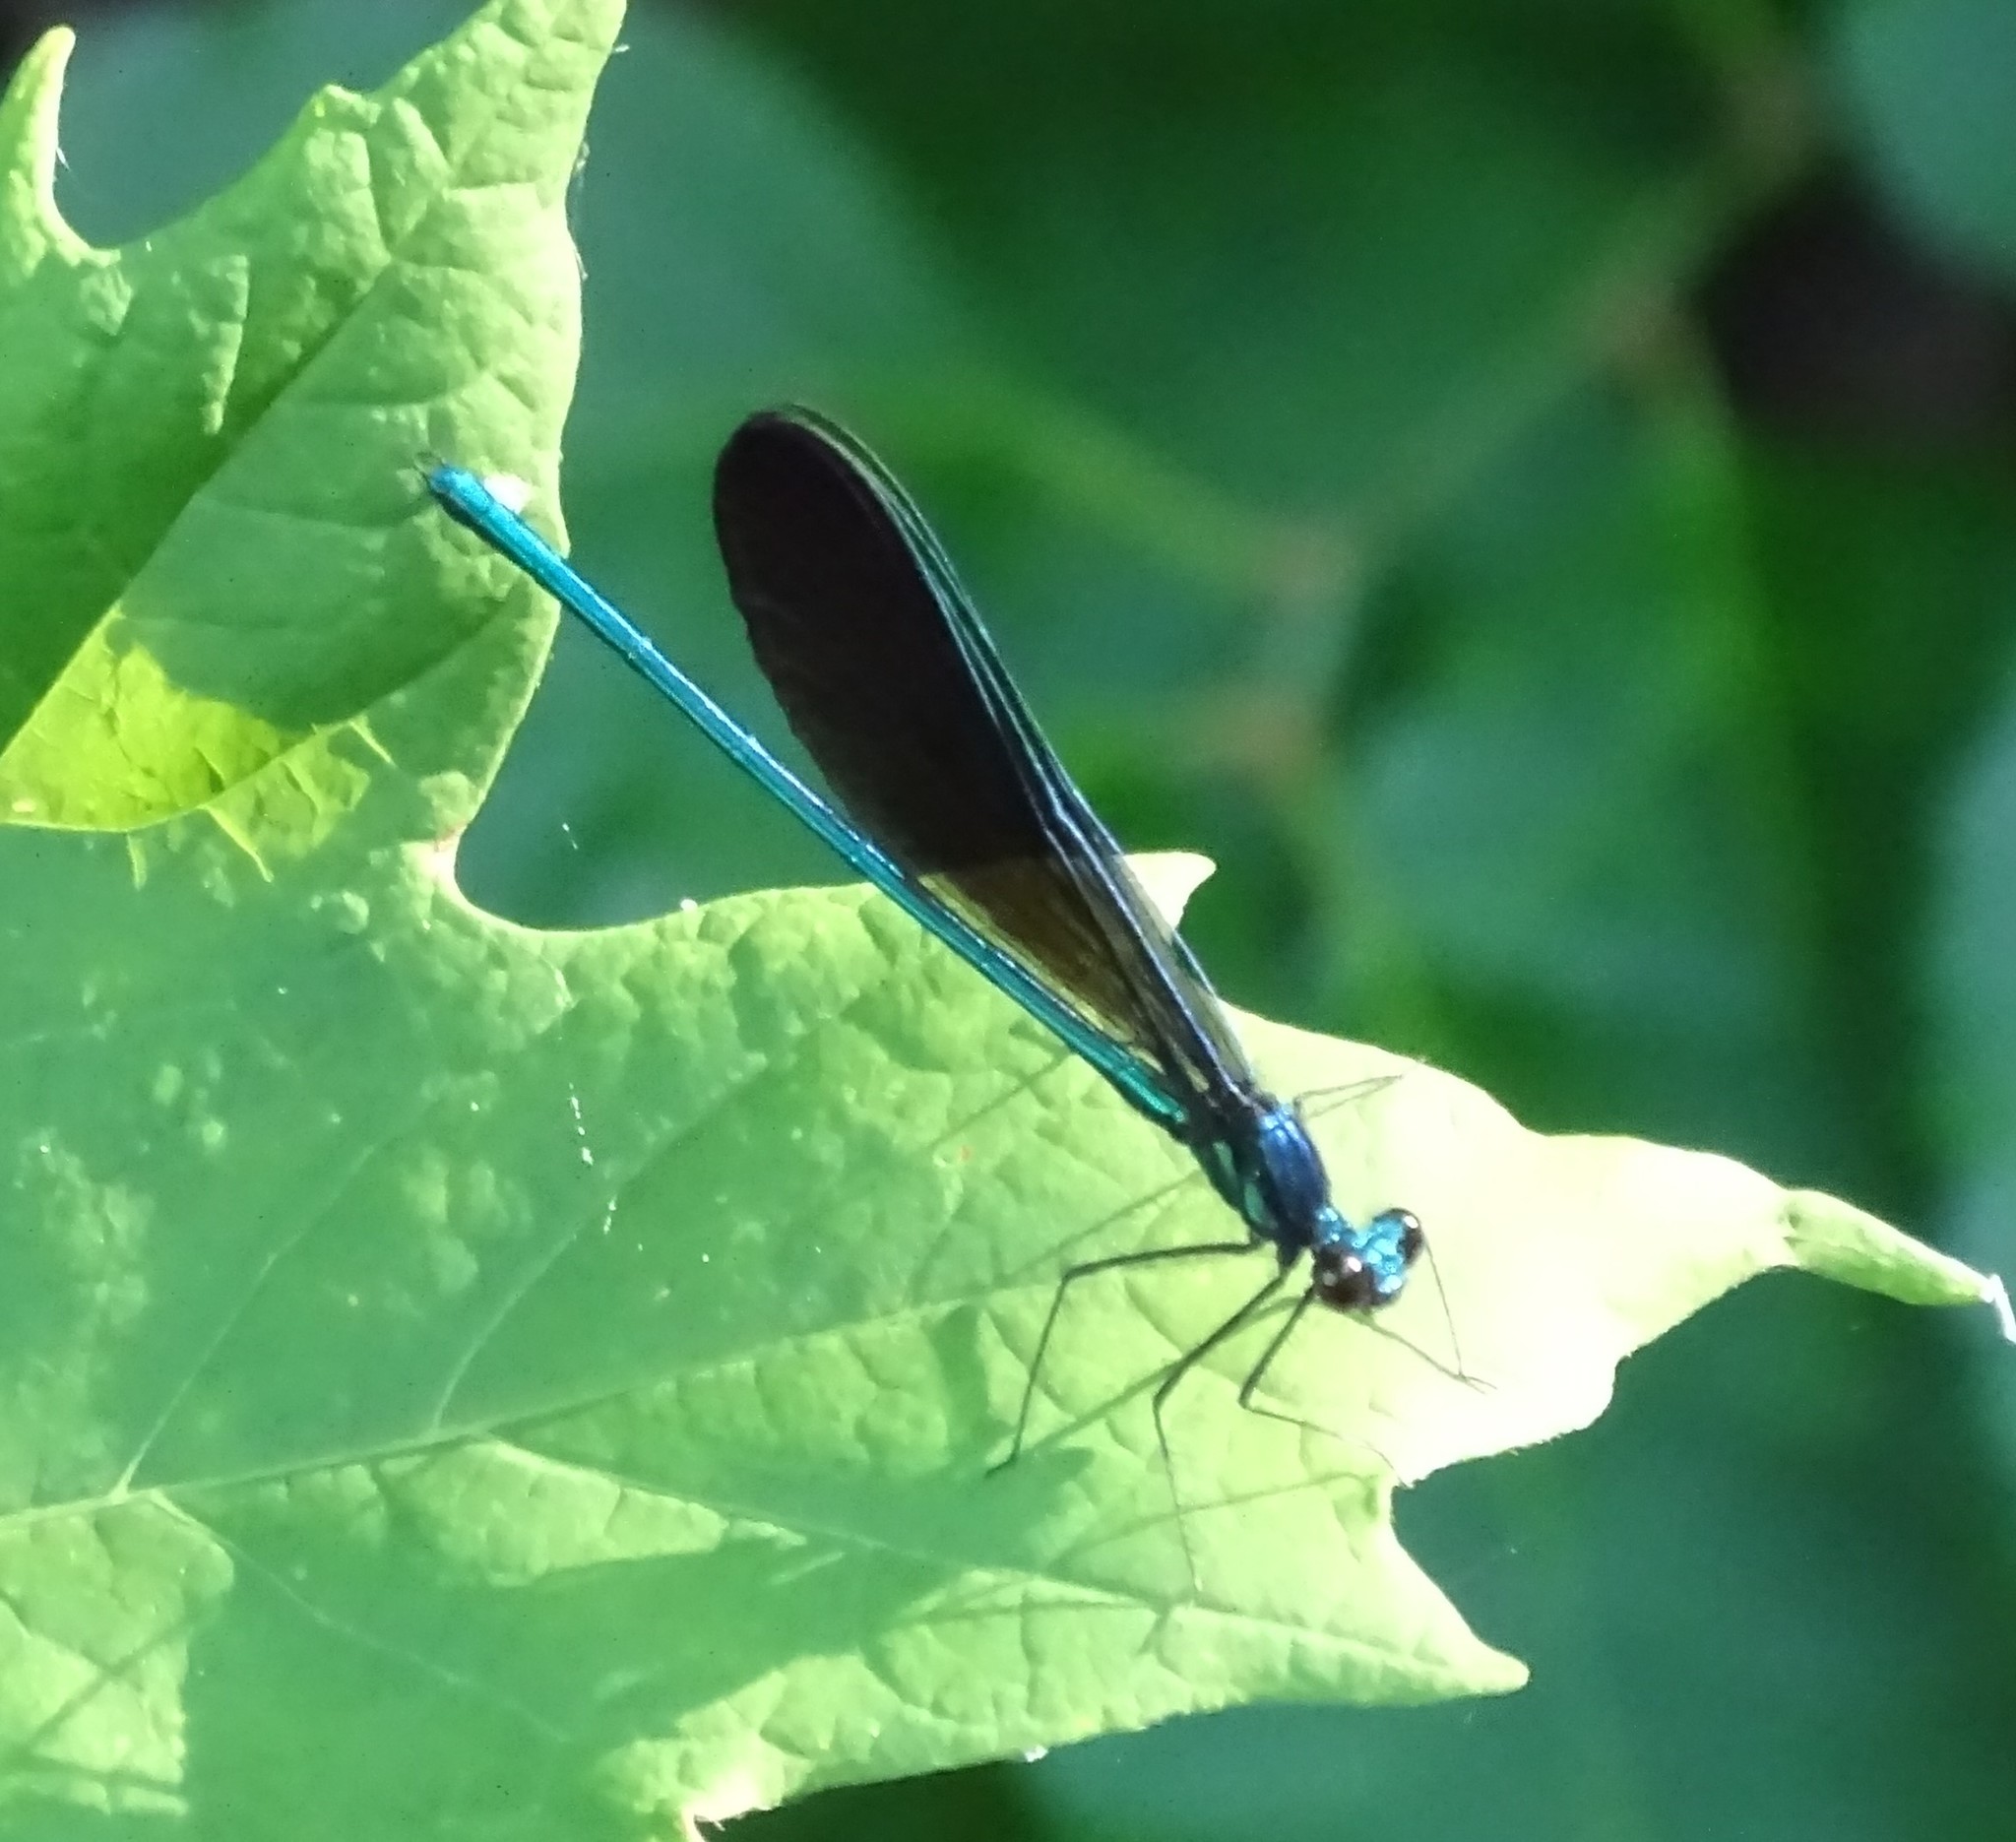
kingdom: Animalia
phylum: Arthropoda
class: Insecta
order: Odonata
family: Calopterygidae
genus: Calopteryx
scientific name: Calopteryx maculata
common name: Ebony jewelwing
